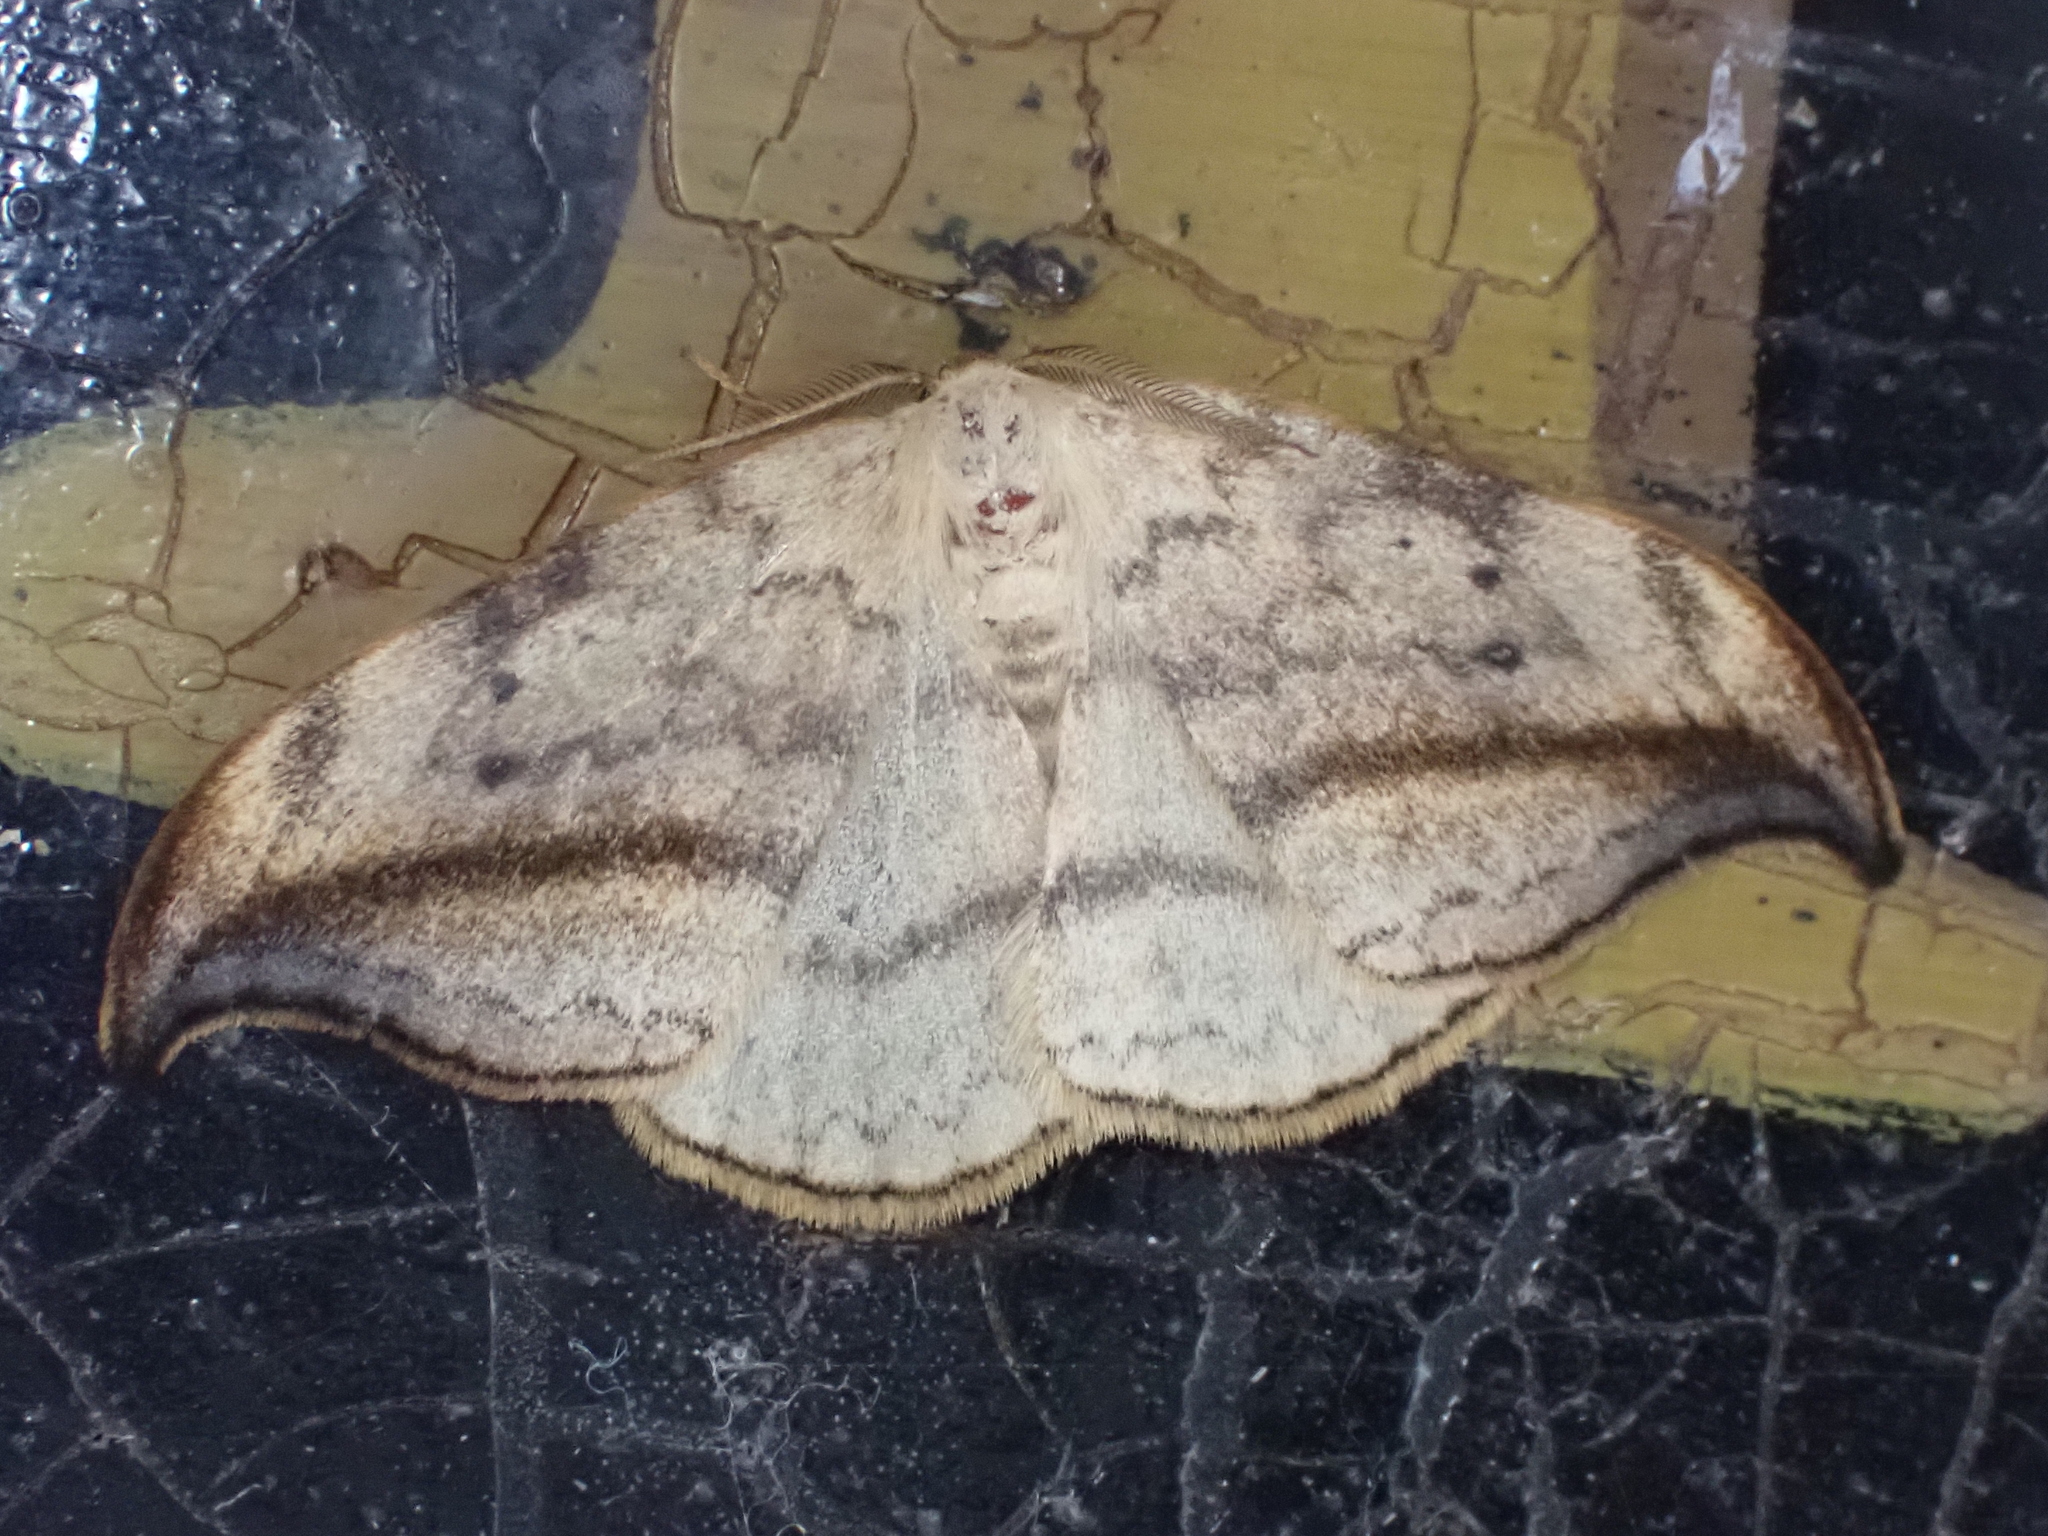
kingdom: Animalia
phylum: Arthropoda
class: Insecta
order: Lepidoptera
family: Drepanidae
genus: Drepana
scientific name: Drepana arcuata
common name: Arched hooktip moth
